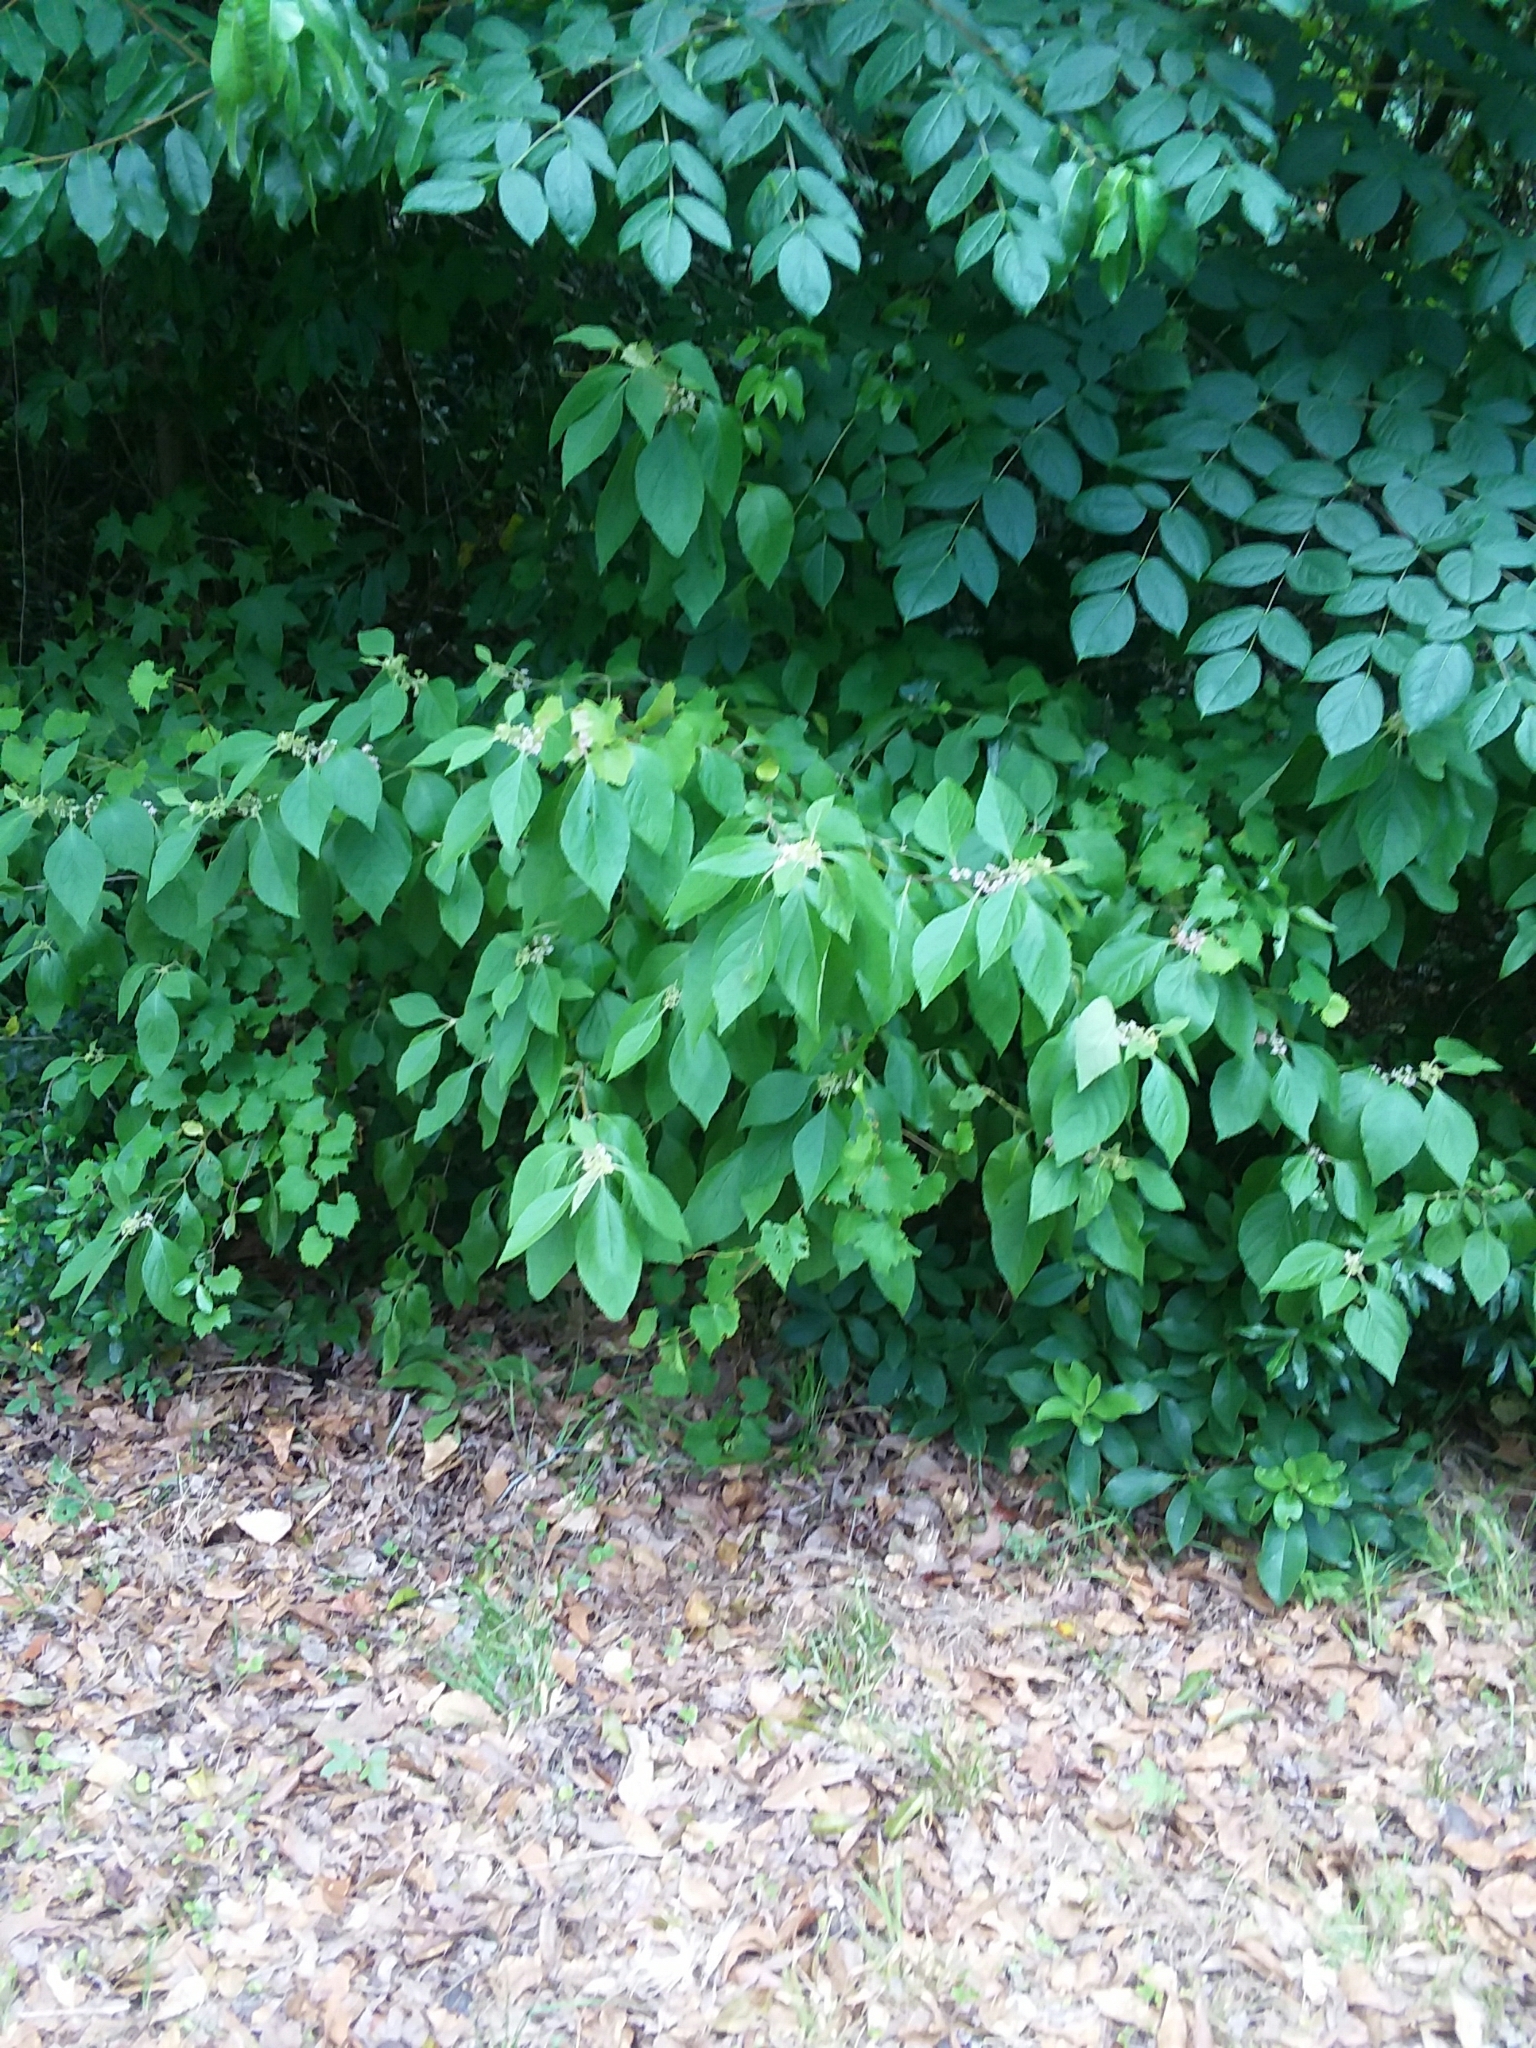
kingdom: Plantae
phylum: Tracheophyta
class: Magnoliopsida
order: Lamiales
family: Lamiaceae
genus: Callicarpa
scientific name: Callicarpa americana
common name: American beautyberry
